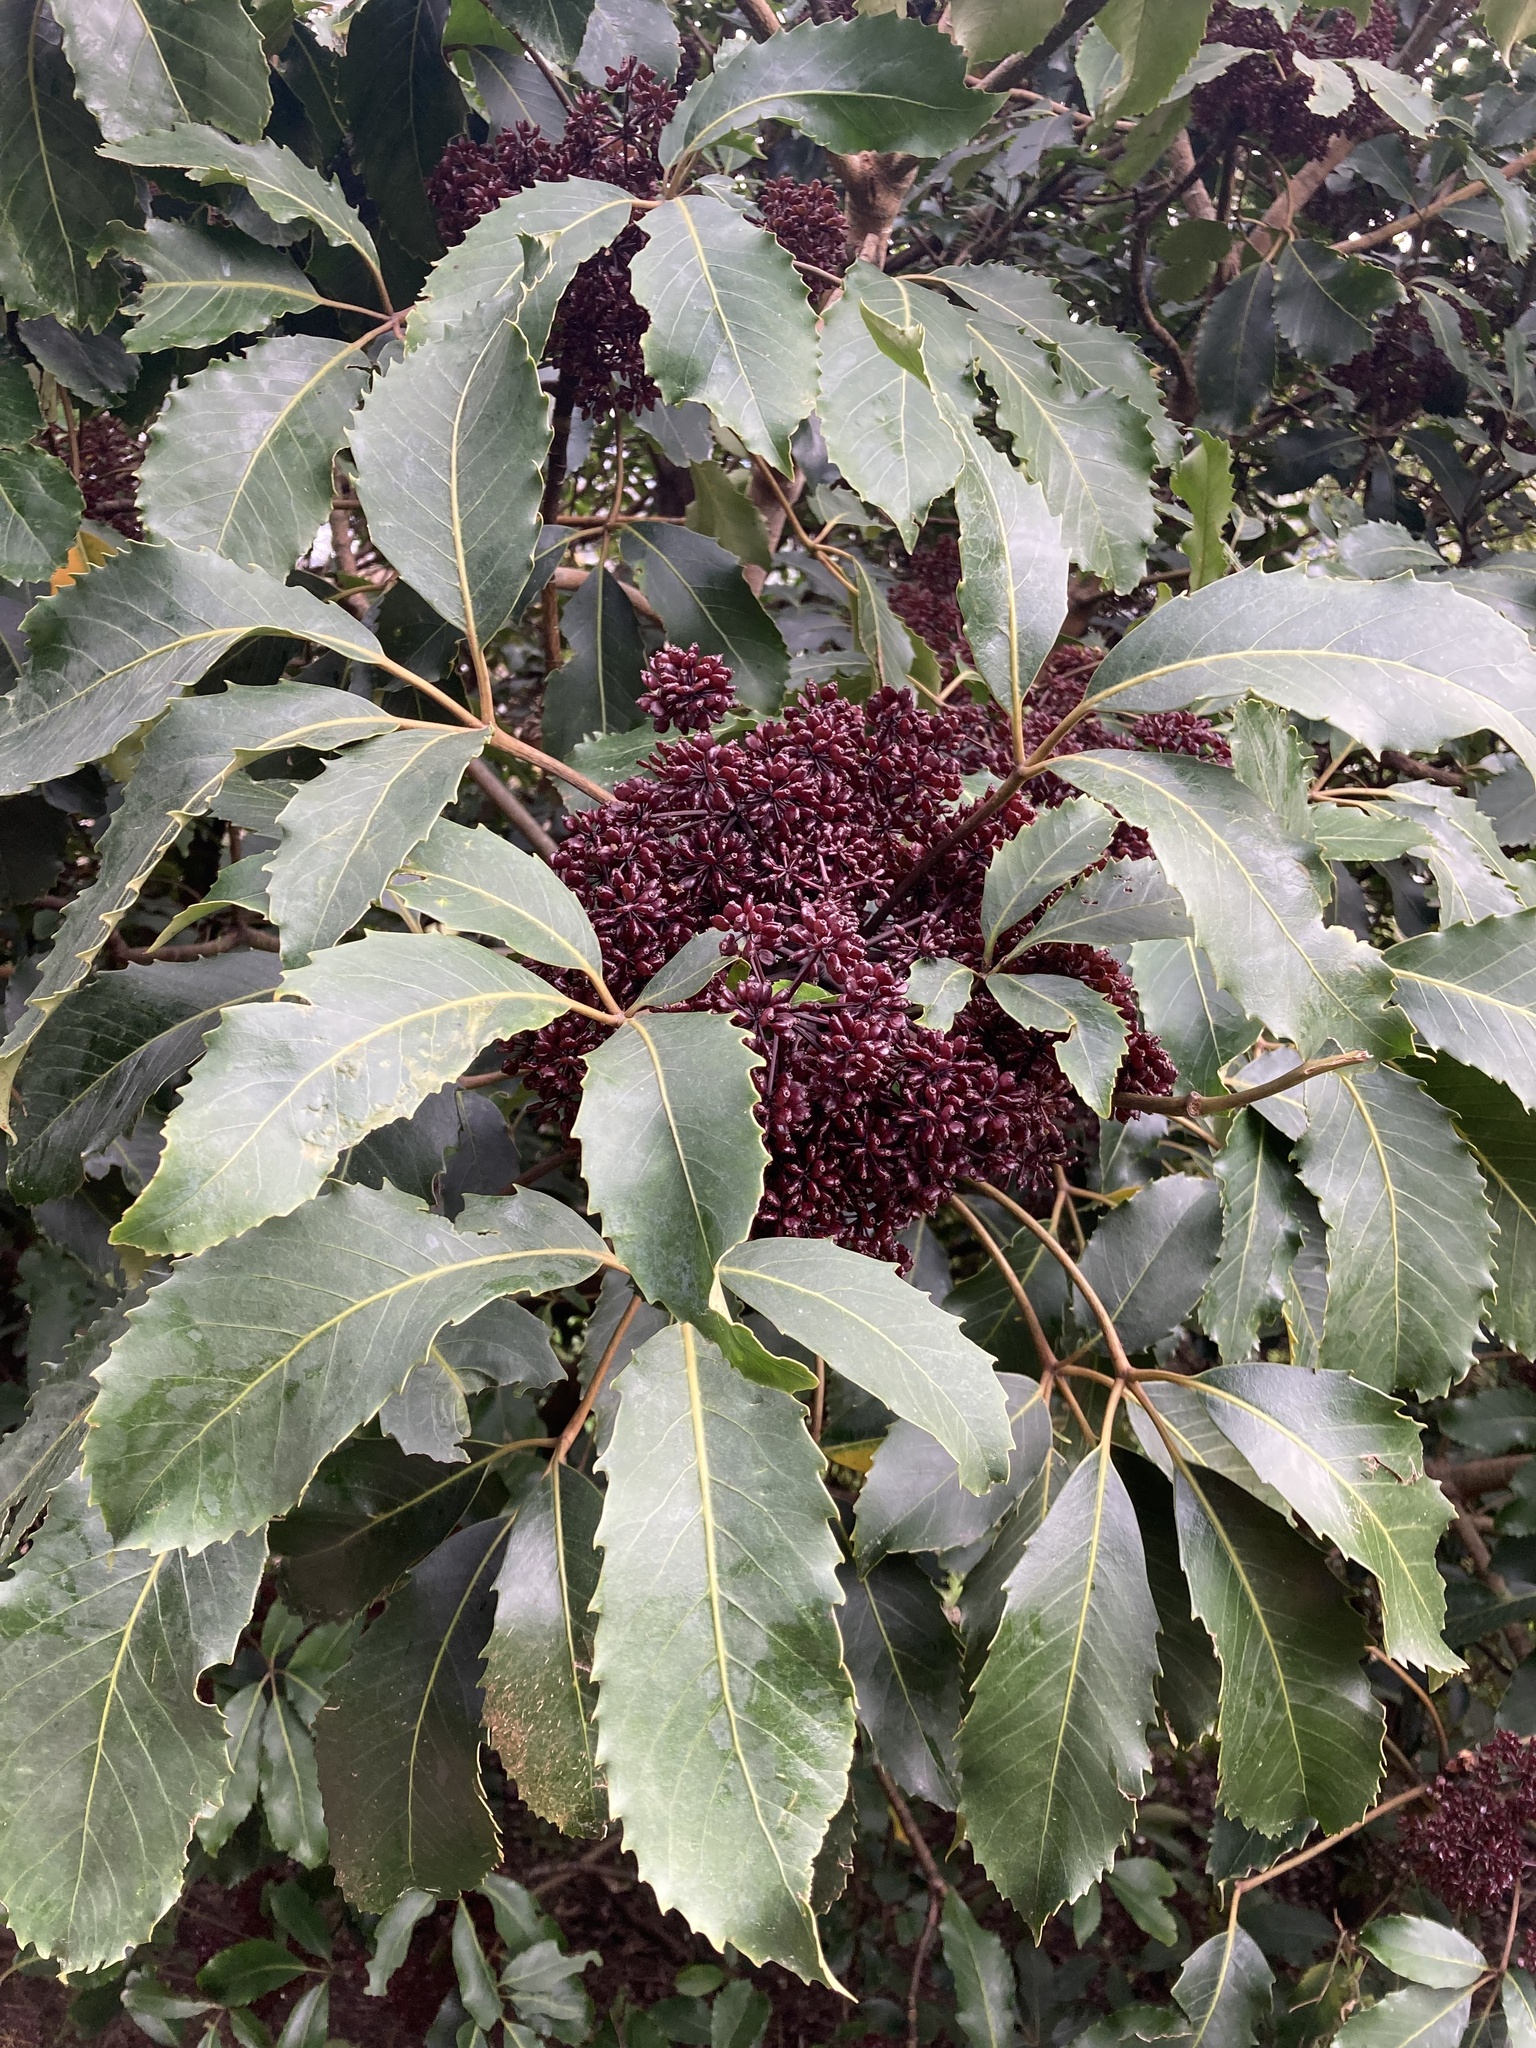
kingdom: Plantae
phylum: Tracheophyta
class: Magnoliopsida
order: Apiales
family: Araliaceae
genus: Neopanax
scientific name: Neopanax arboreus
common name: Five-fingers
